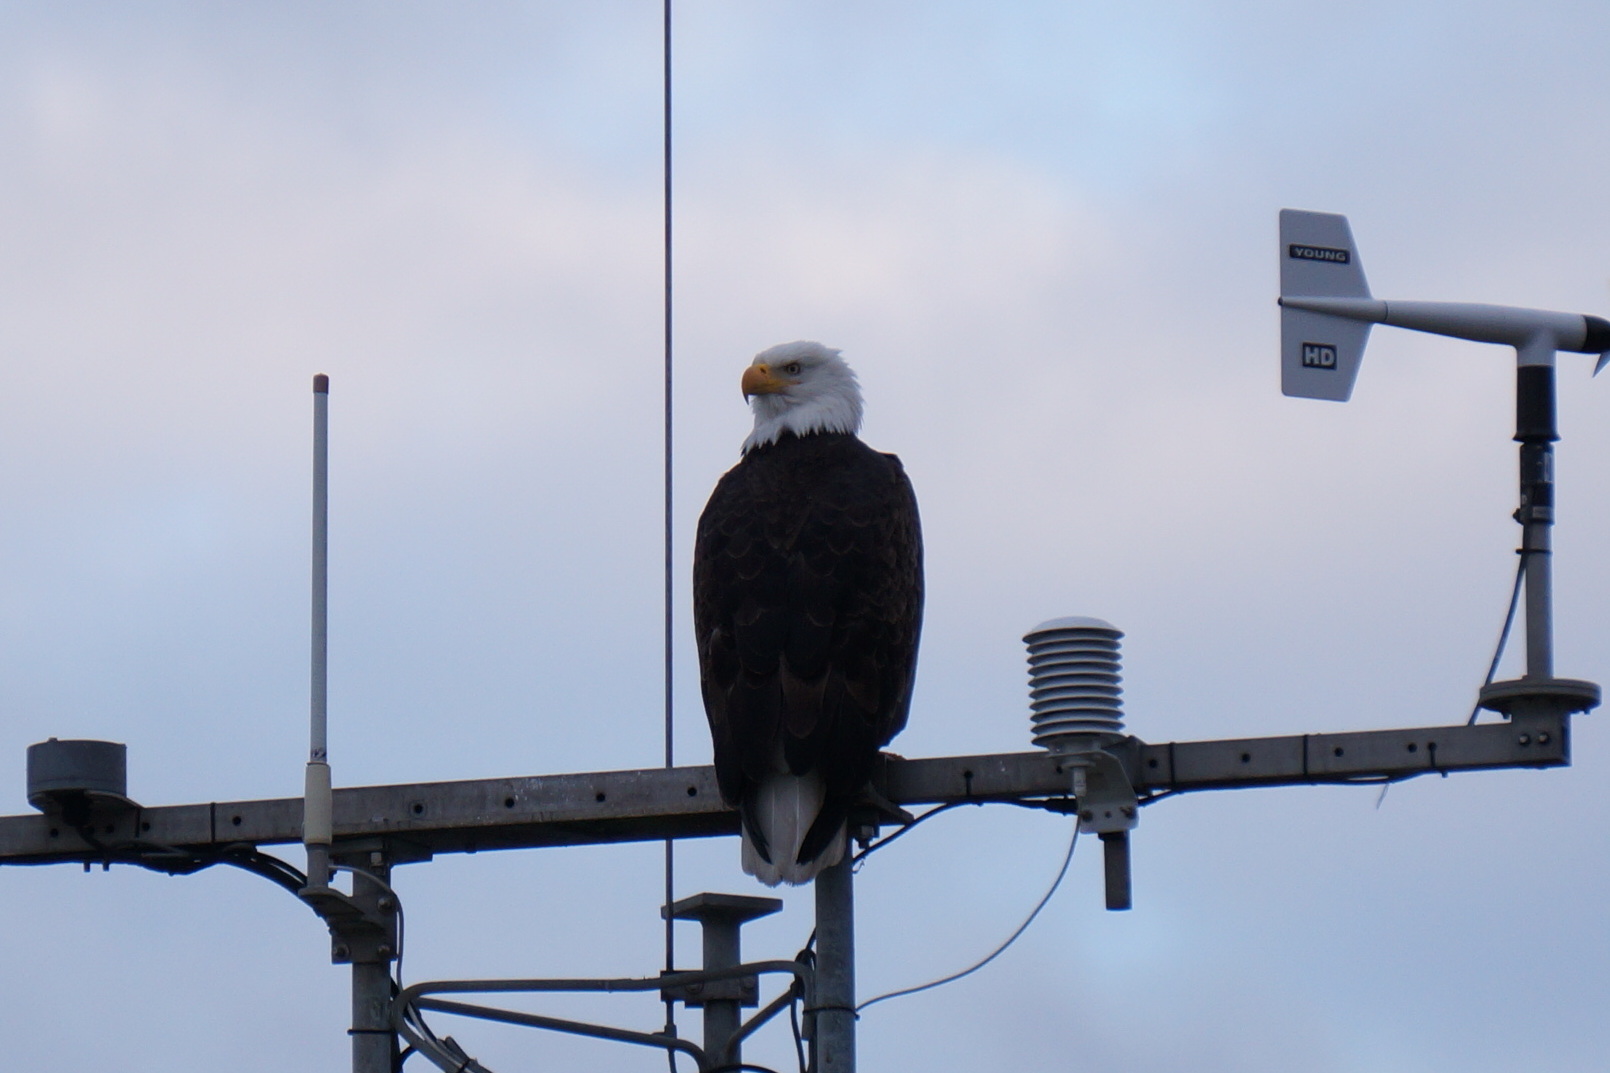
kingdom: Animalia
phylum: Chordata
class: Aves
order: Accipitriformes
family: Accipitridae
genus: Haliaeetus
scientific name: Haliaeetus leucocephalus
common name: Bald eagle
